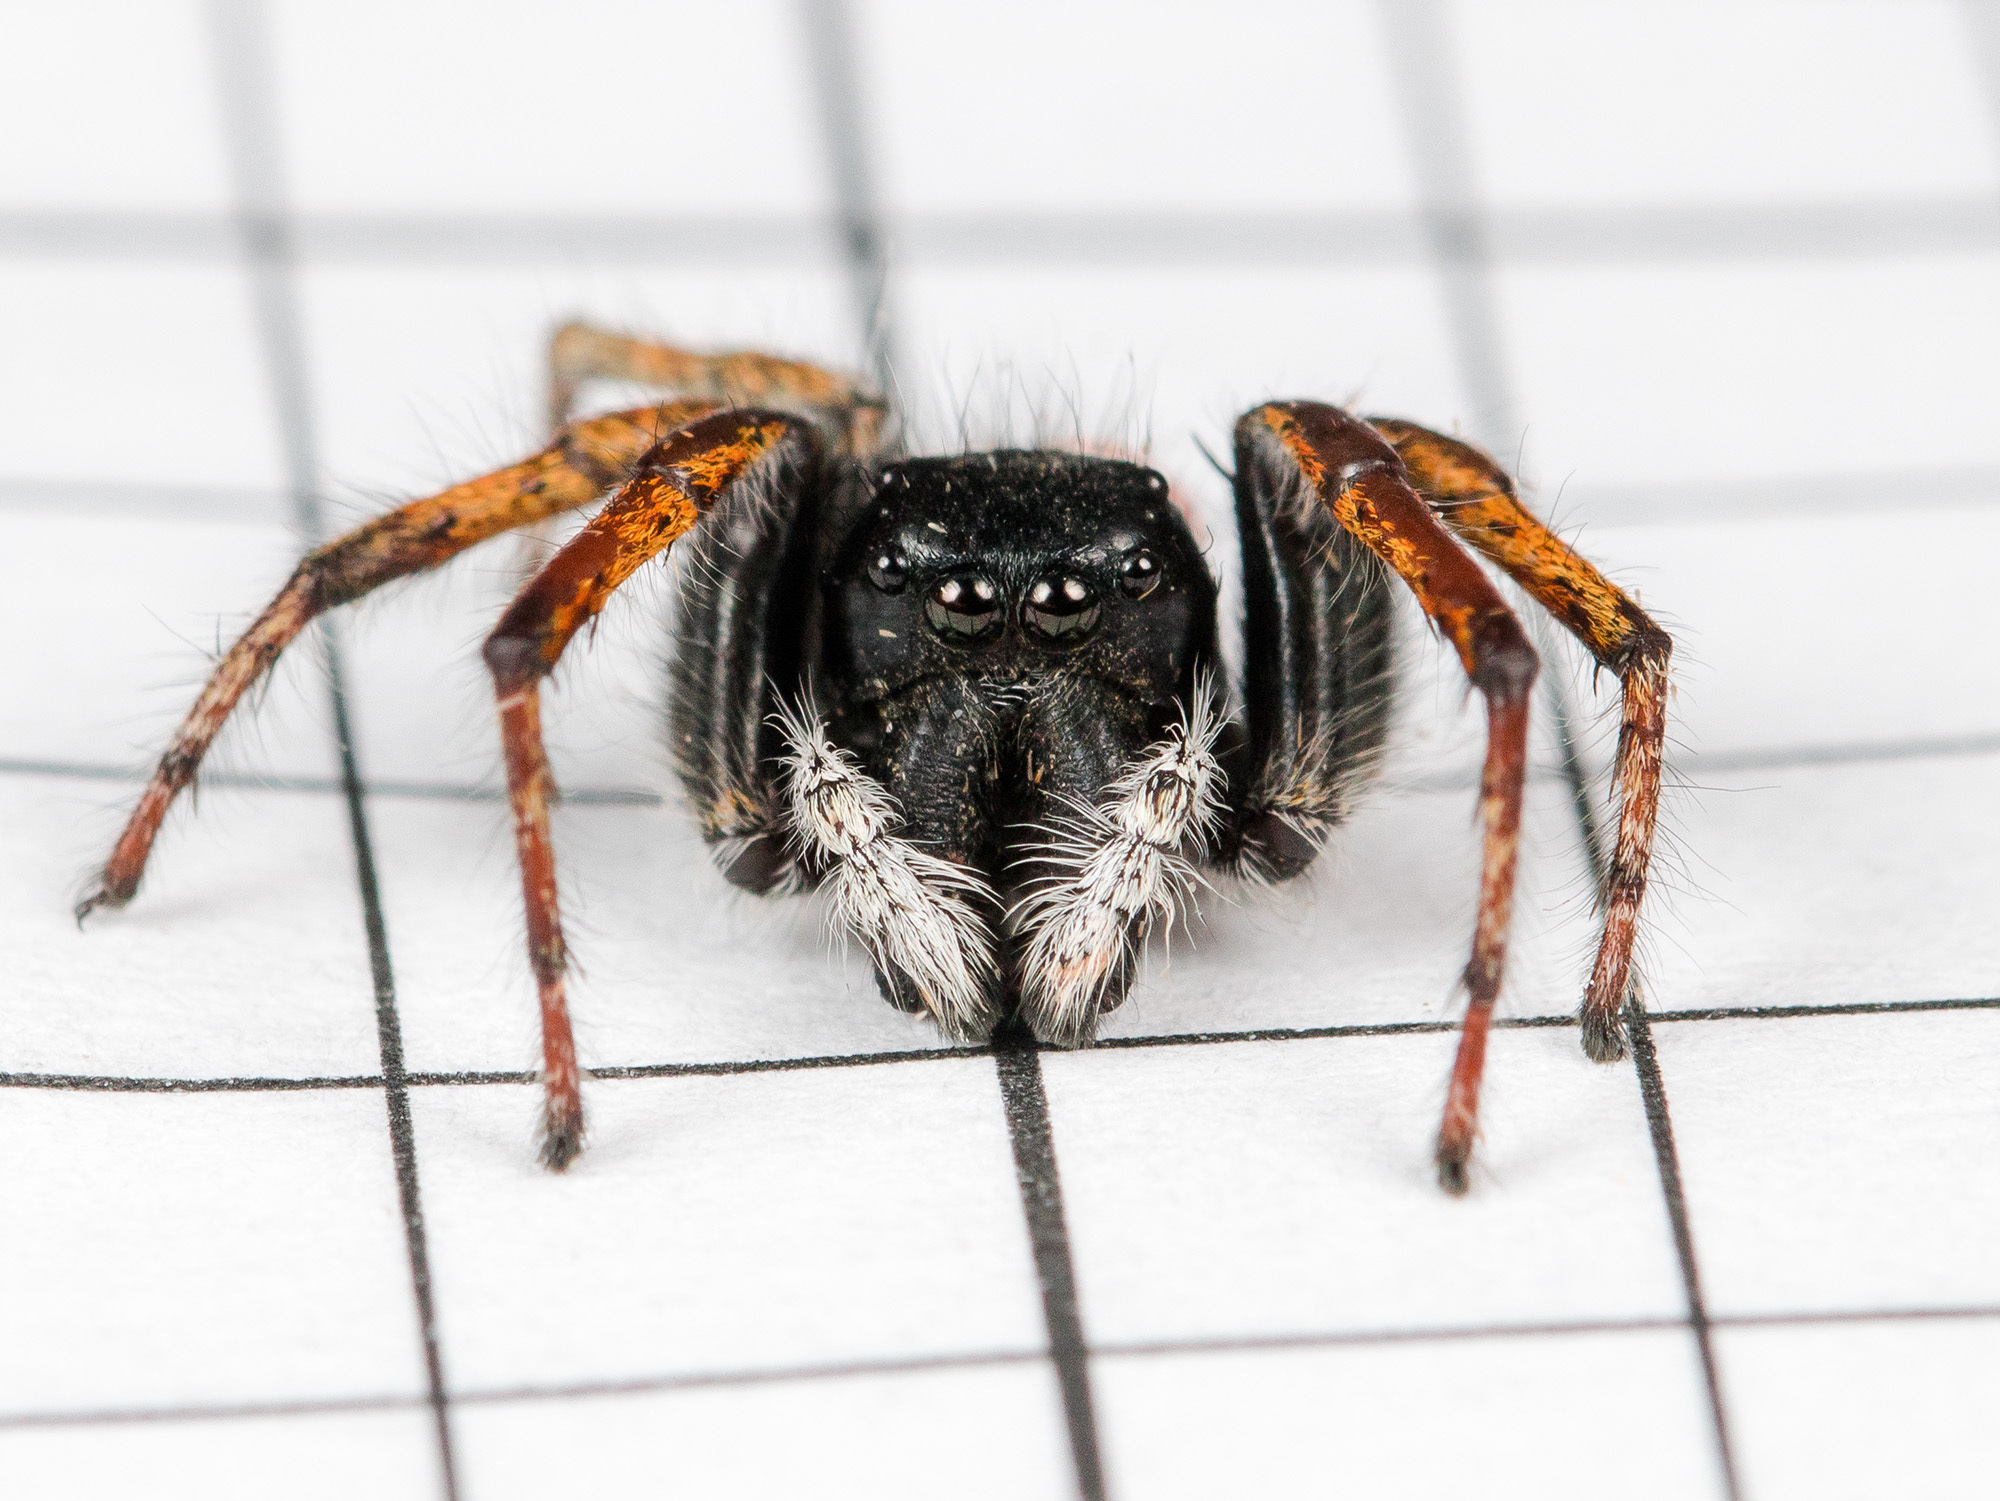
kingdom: Animalia
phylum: Arthropoda
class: Arachnida
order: Araneae
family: Salticidae
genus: Philaeus
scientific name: Philaeus chrysops
